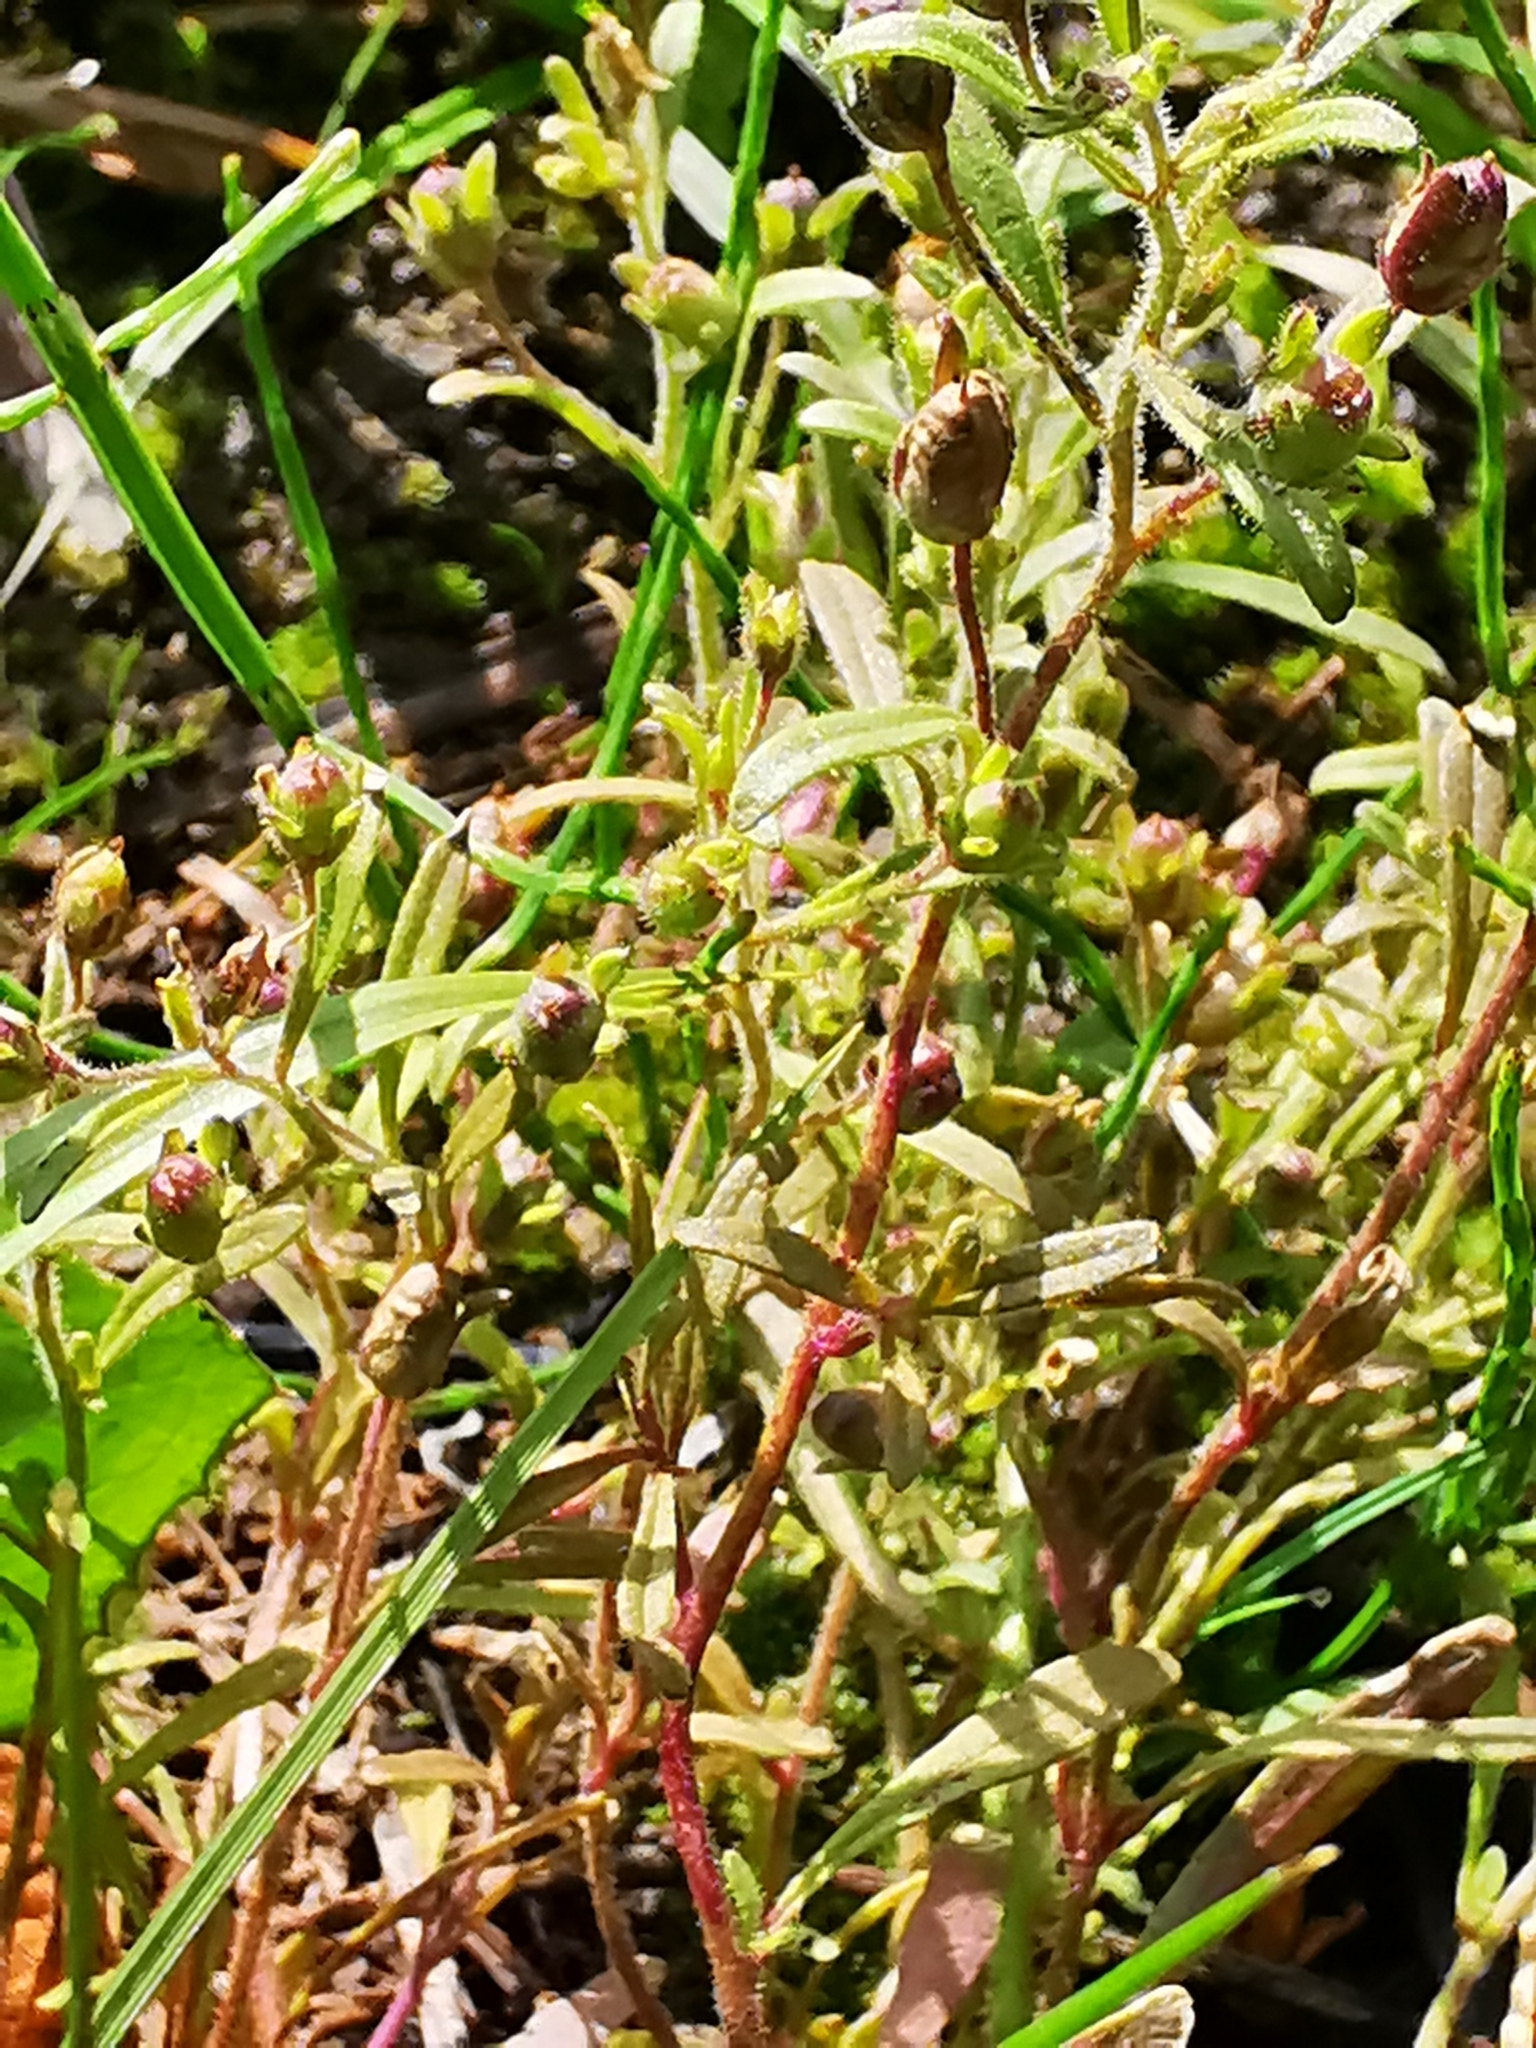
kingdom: Plantae
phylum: Tracheophyta
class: Magnoliopsida
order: Lamiales
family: Plantaginaceae
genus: Chaenorhinum
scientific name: Chaenorhinum minus
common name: Dwarf snapdragon
